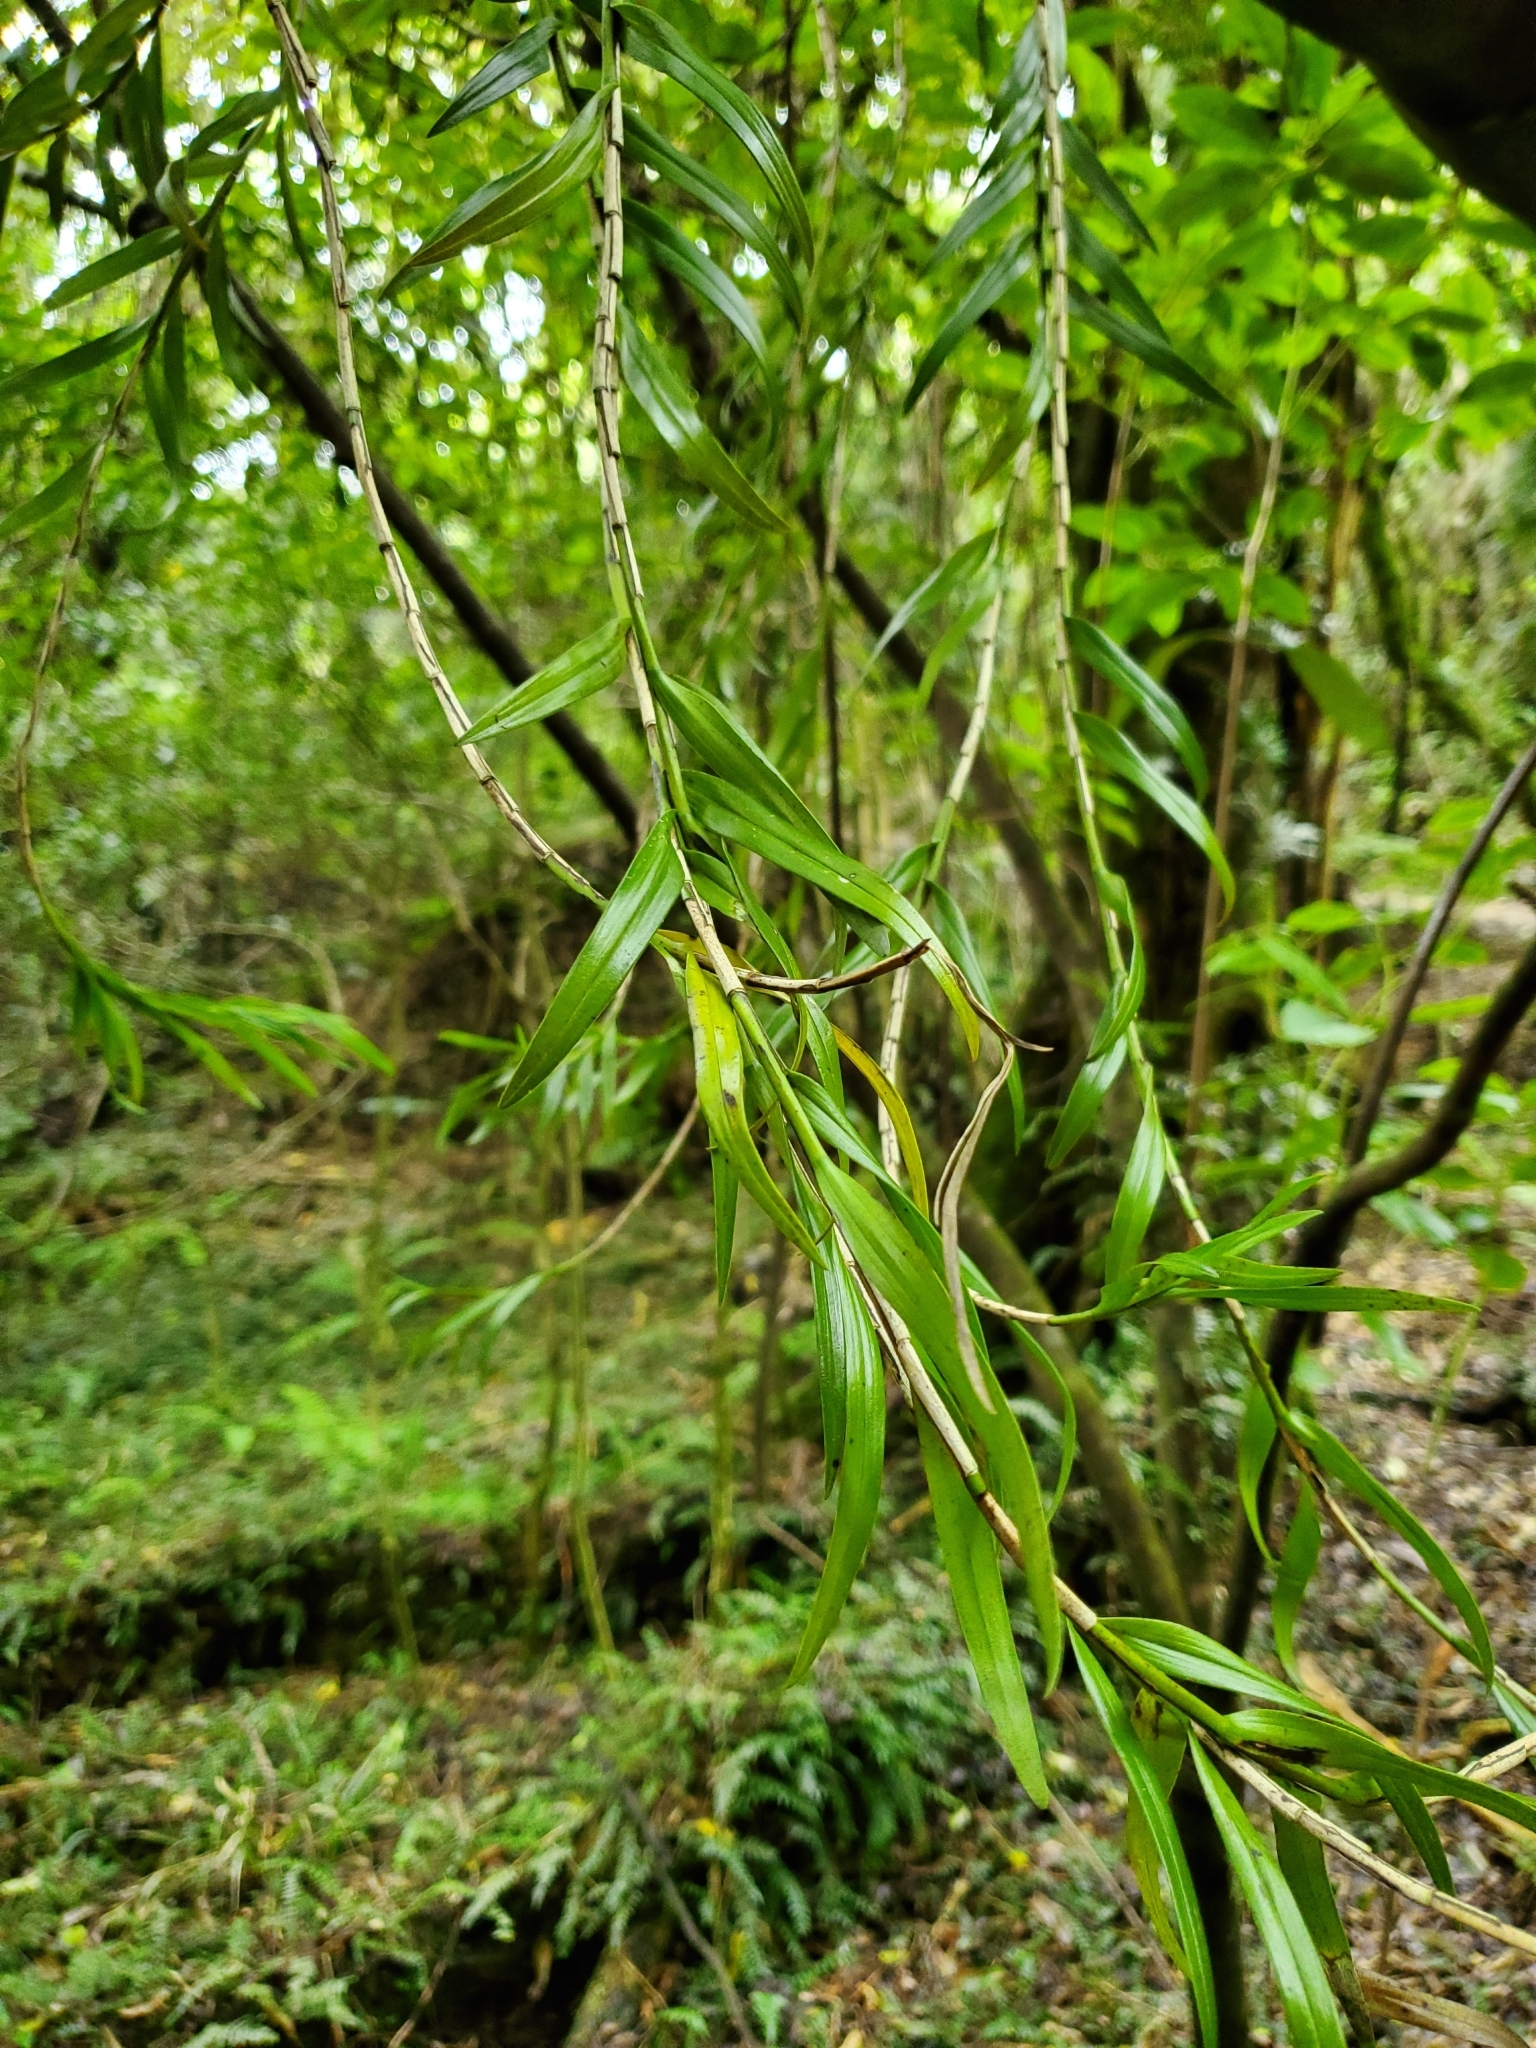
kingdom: Plantae
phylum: Tracheophyta
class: Liliopsida
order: Asparagales
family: Orchidaceae
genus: Earina
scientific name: Earina autumnalis
